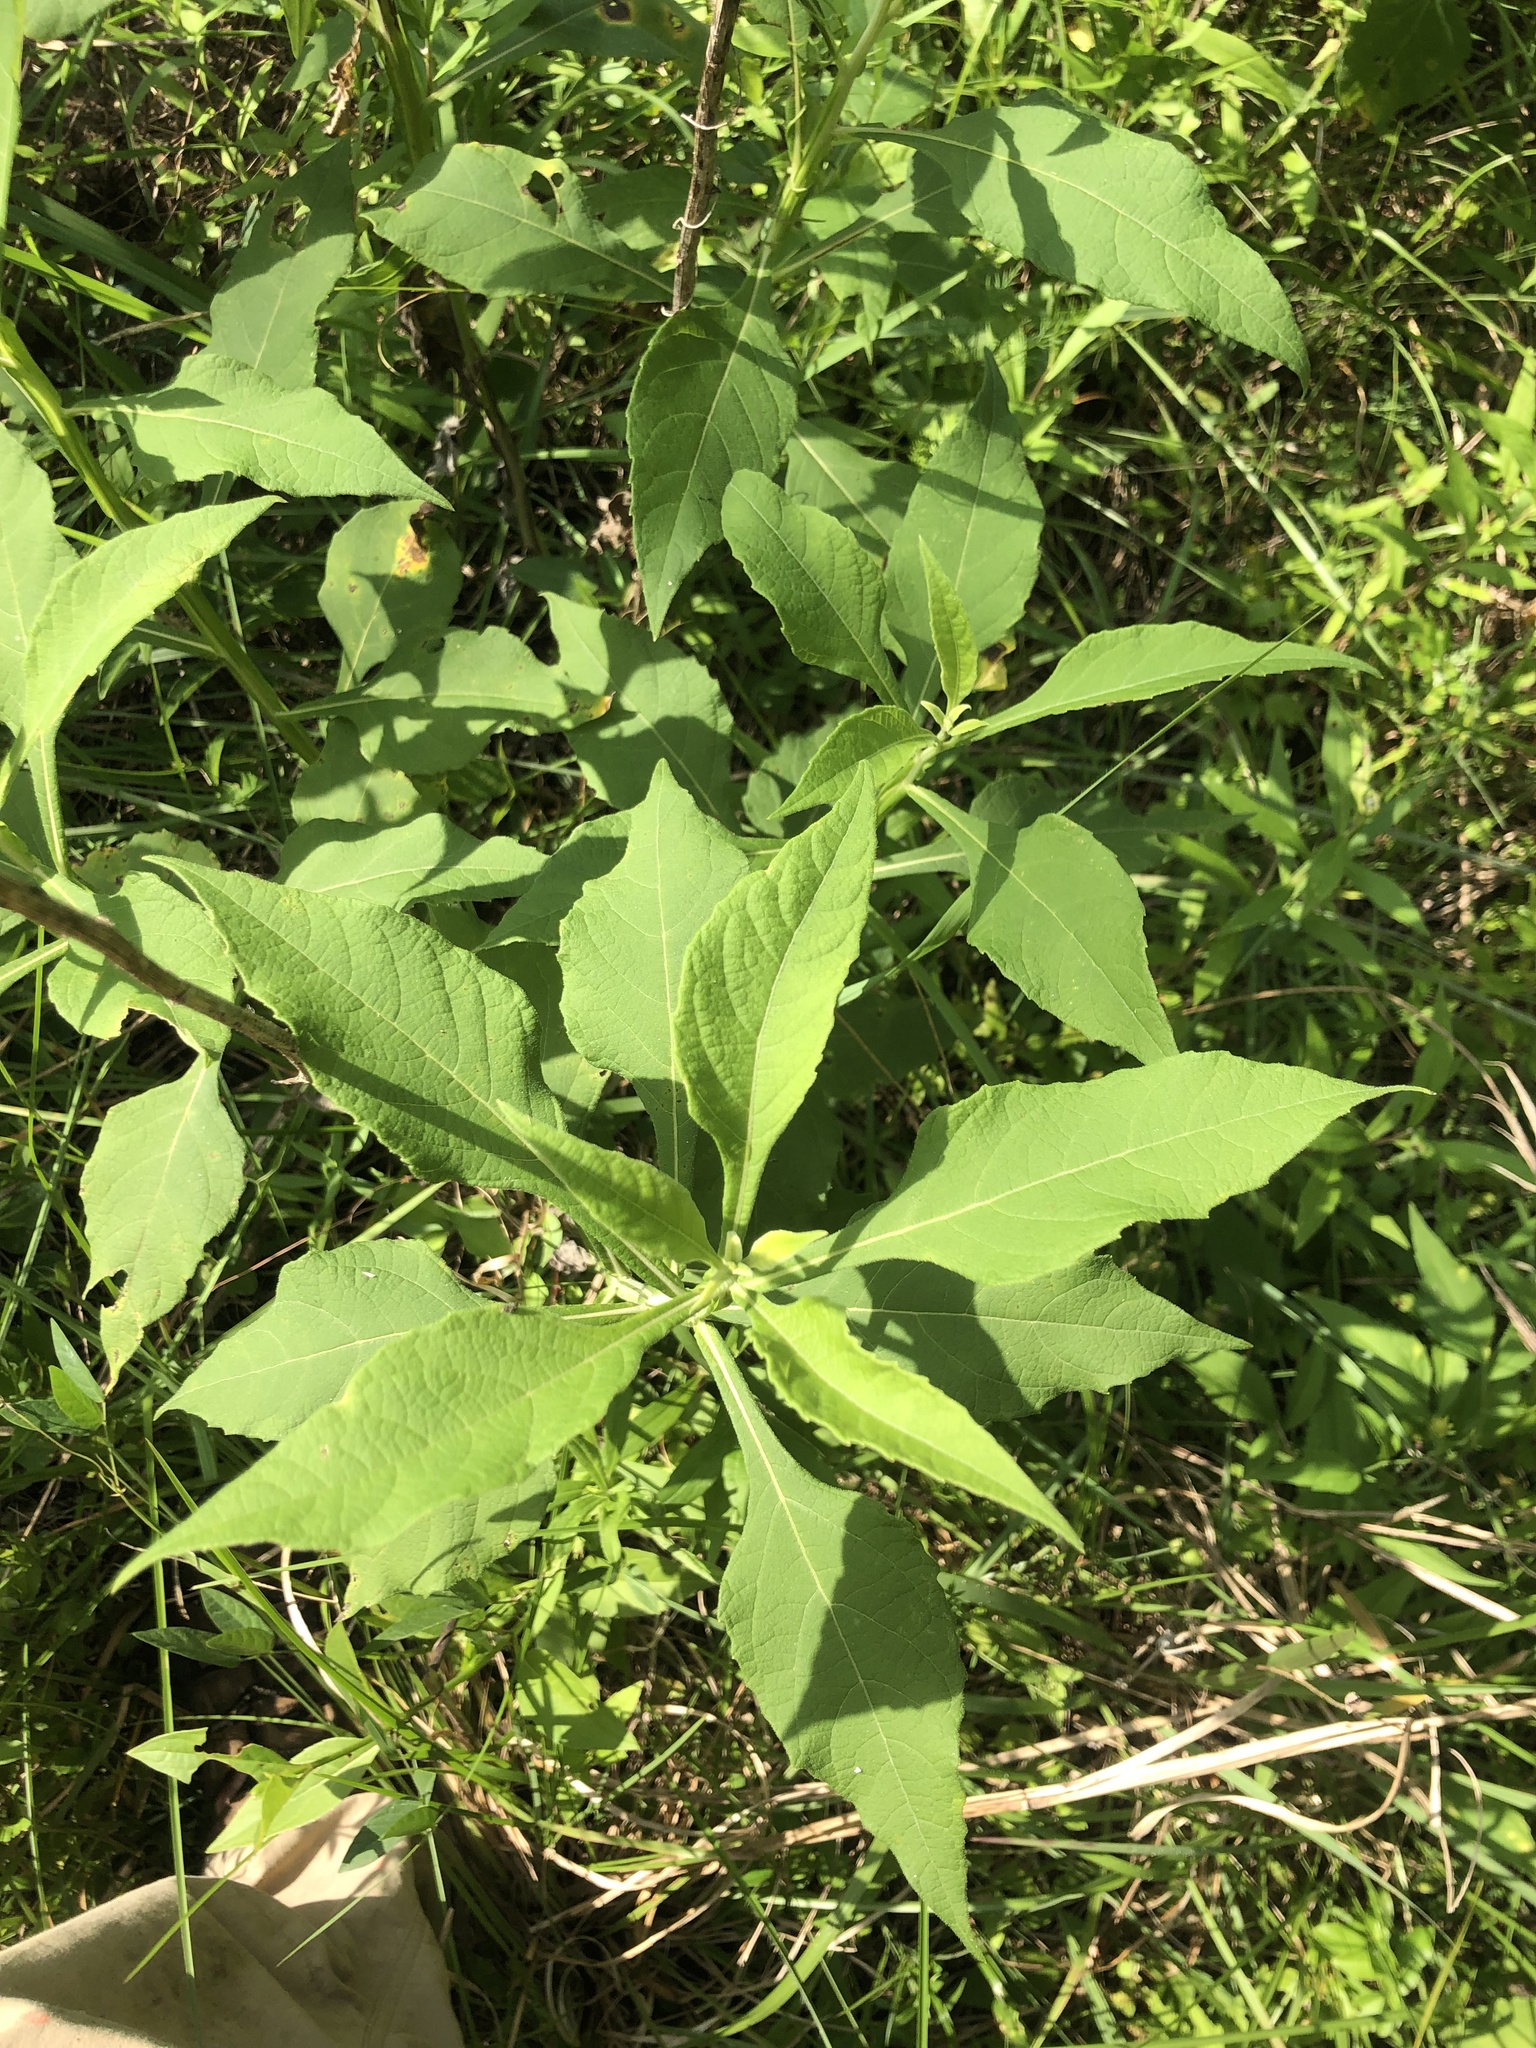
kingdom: Plantae
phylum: Tracheophyta
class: Magnoliopsida
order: Asterales
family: Asteraceae
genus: Verbesina
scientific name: Verbesina virginica
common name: Frostweed
